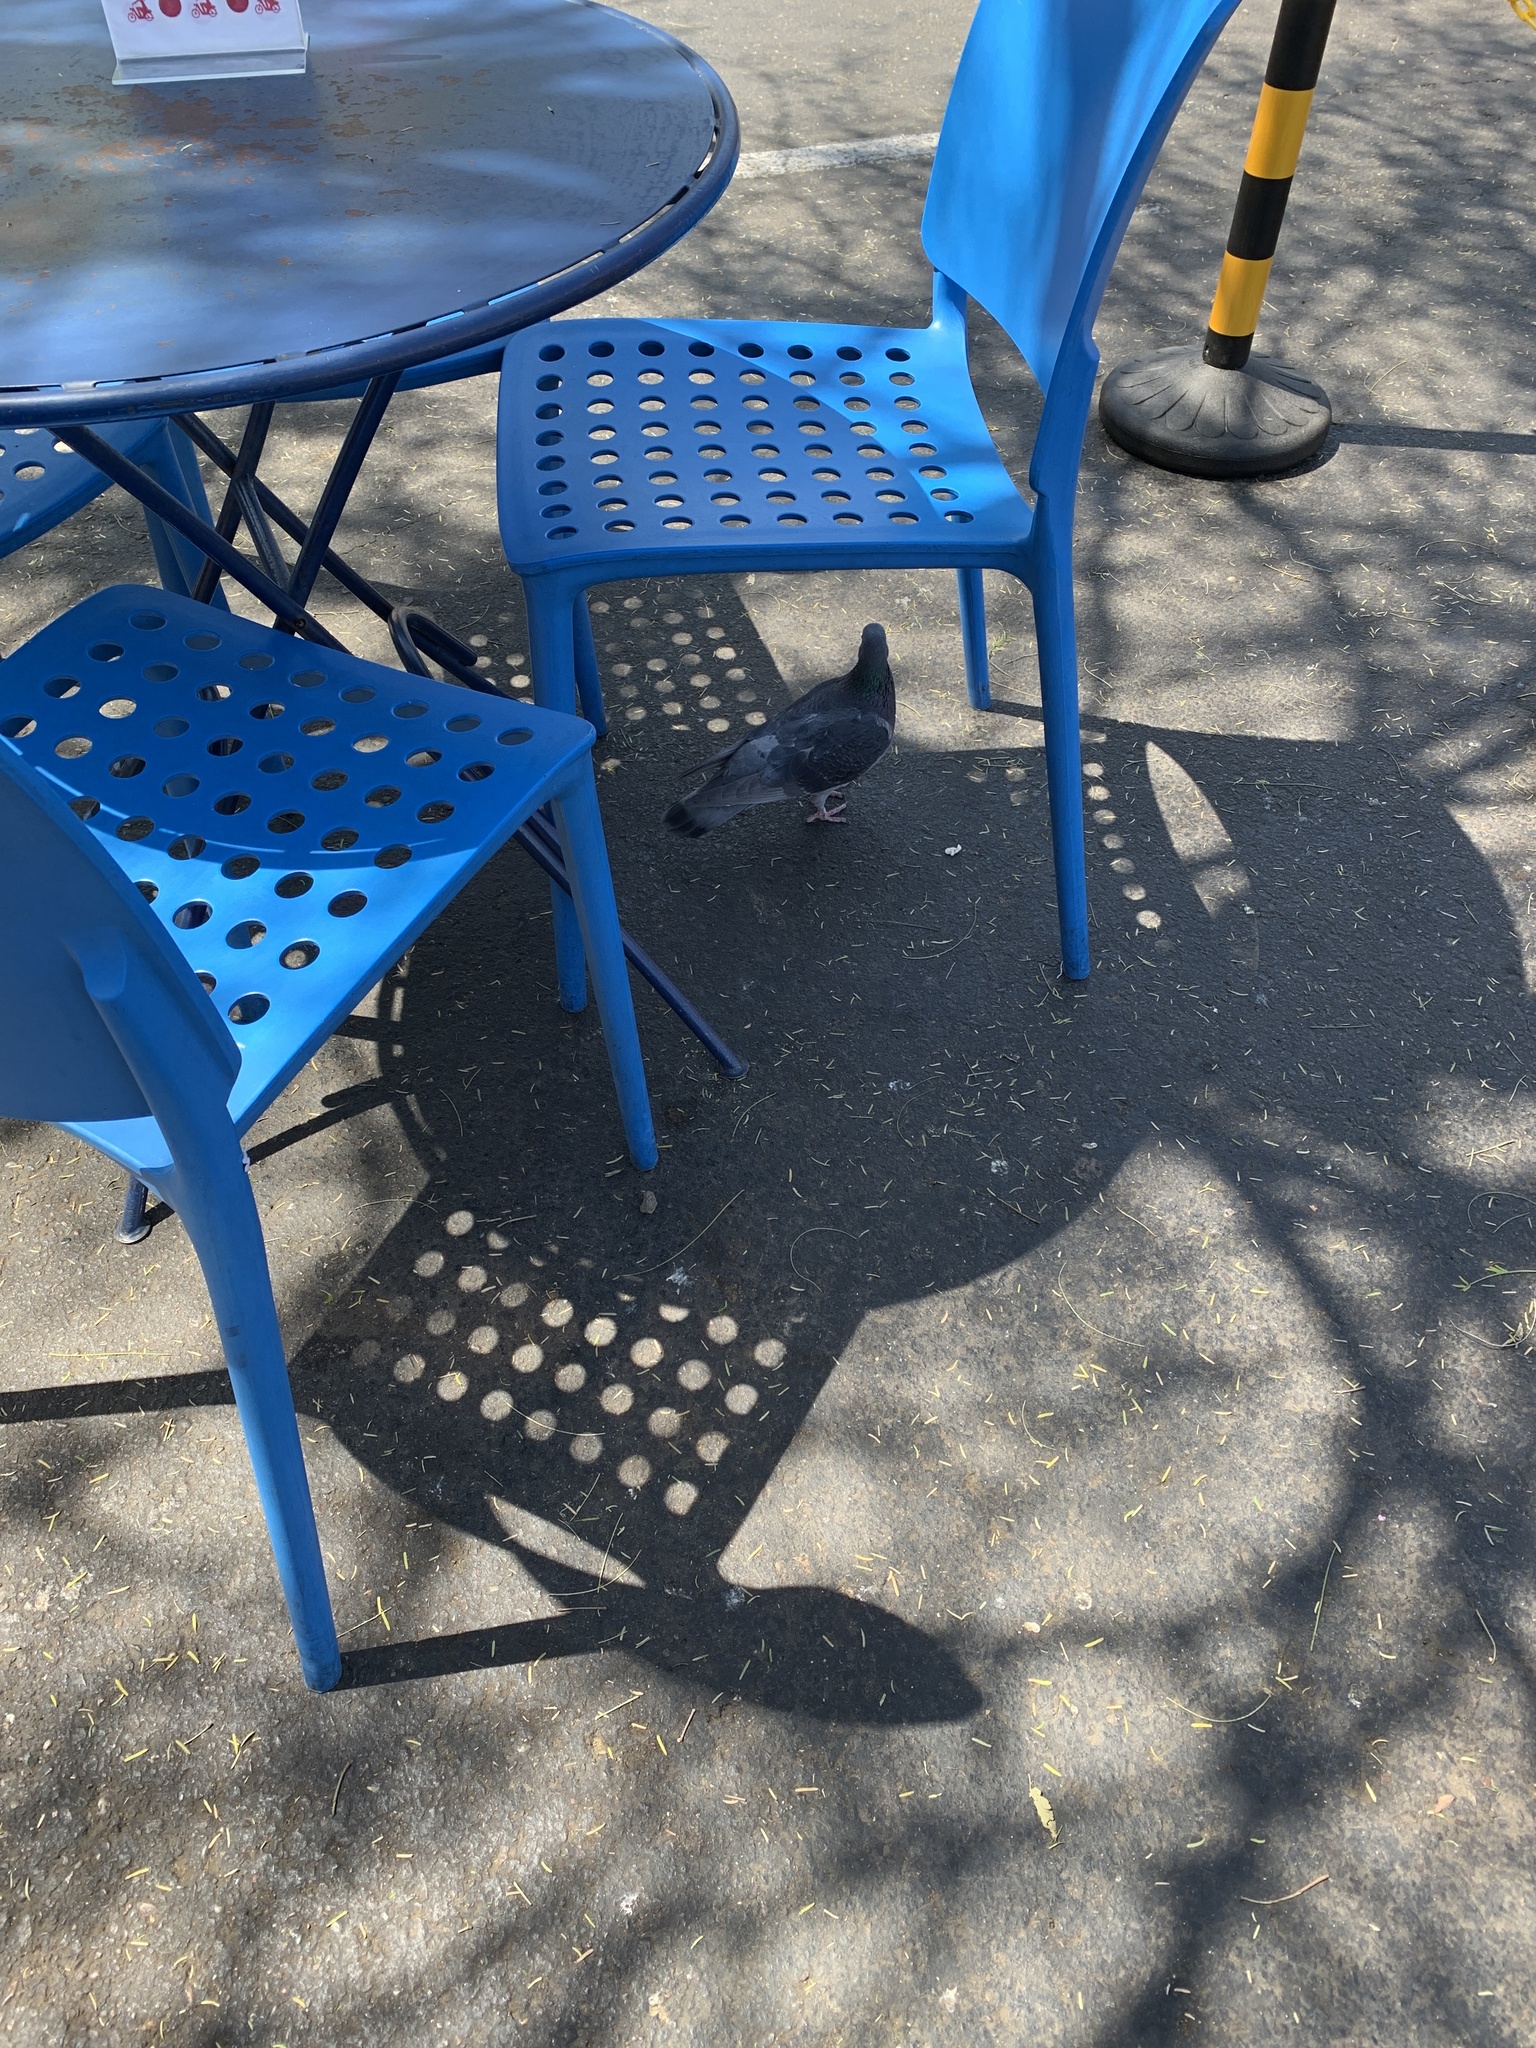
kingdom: Animalia
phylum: Chordata
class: Aves
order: Columbiformes
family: Columbidae
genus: Columba
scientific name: Columba livia
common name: Rock pigeon
